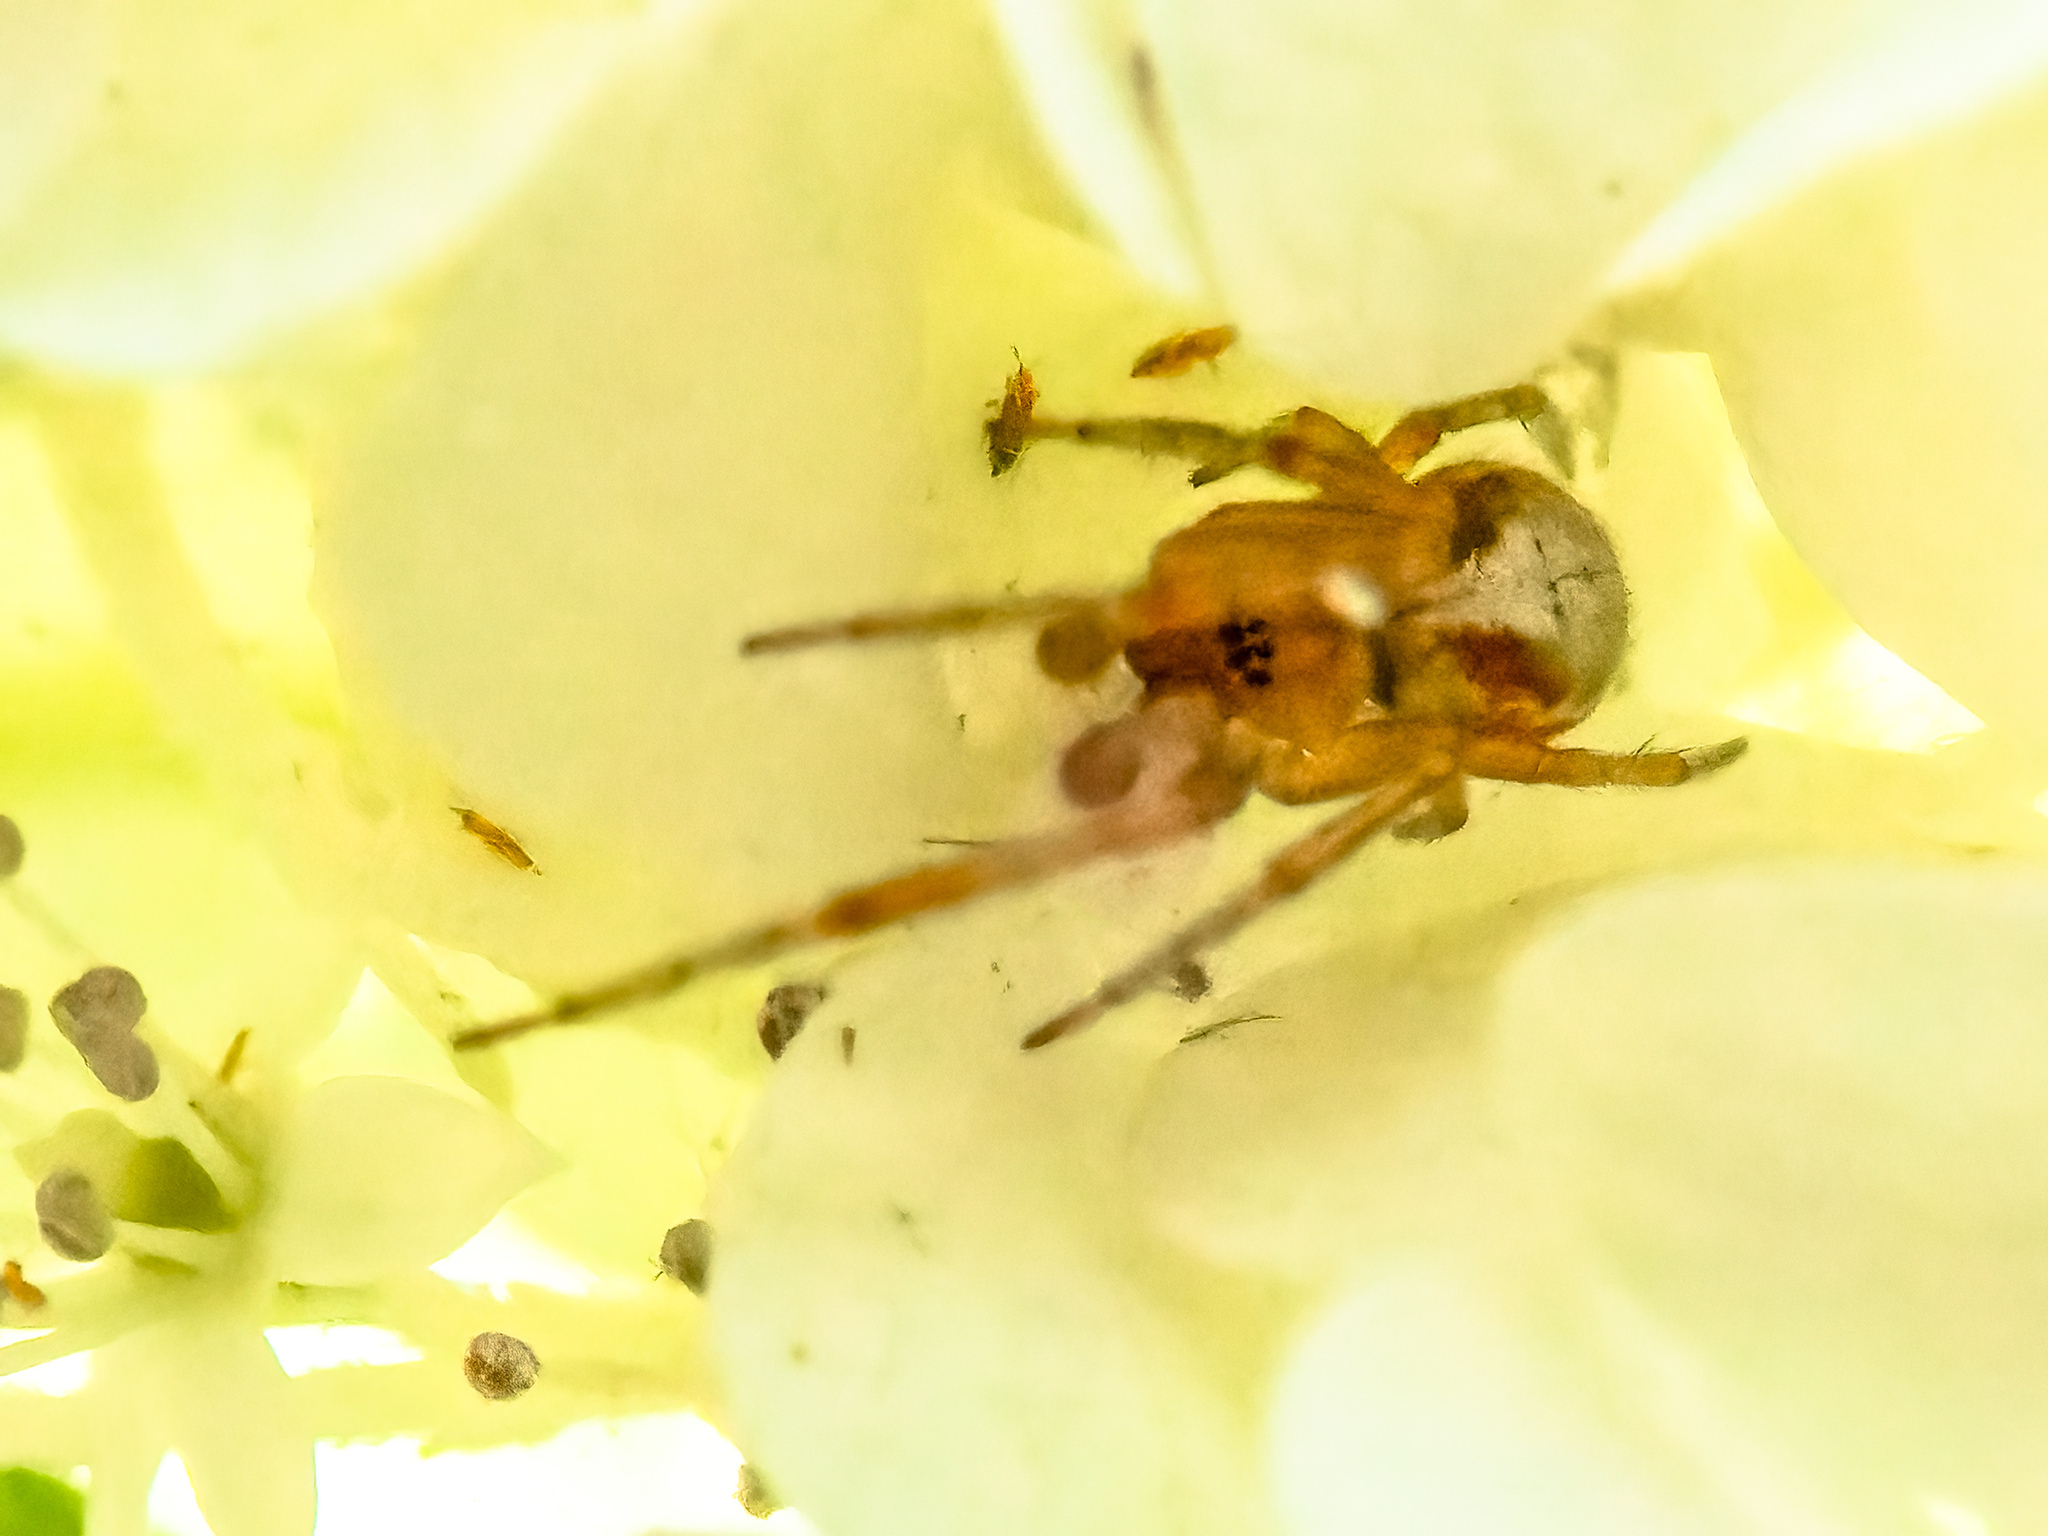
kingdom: Animalia
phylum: Arthropoda
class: Arachnida
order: Araneae
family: Araneidae
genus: Zygiella
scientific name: Zygiella atrica
